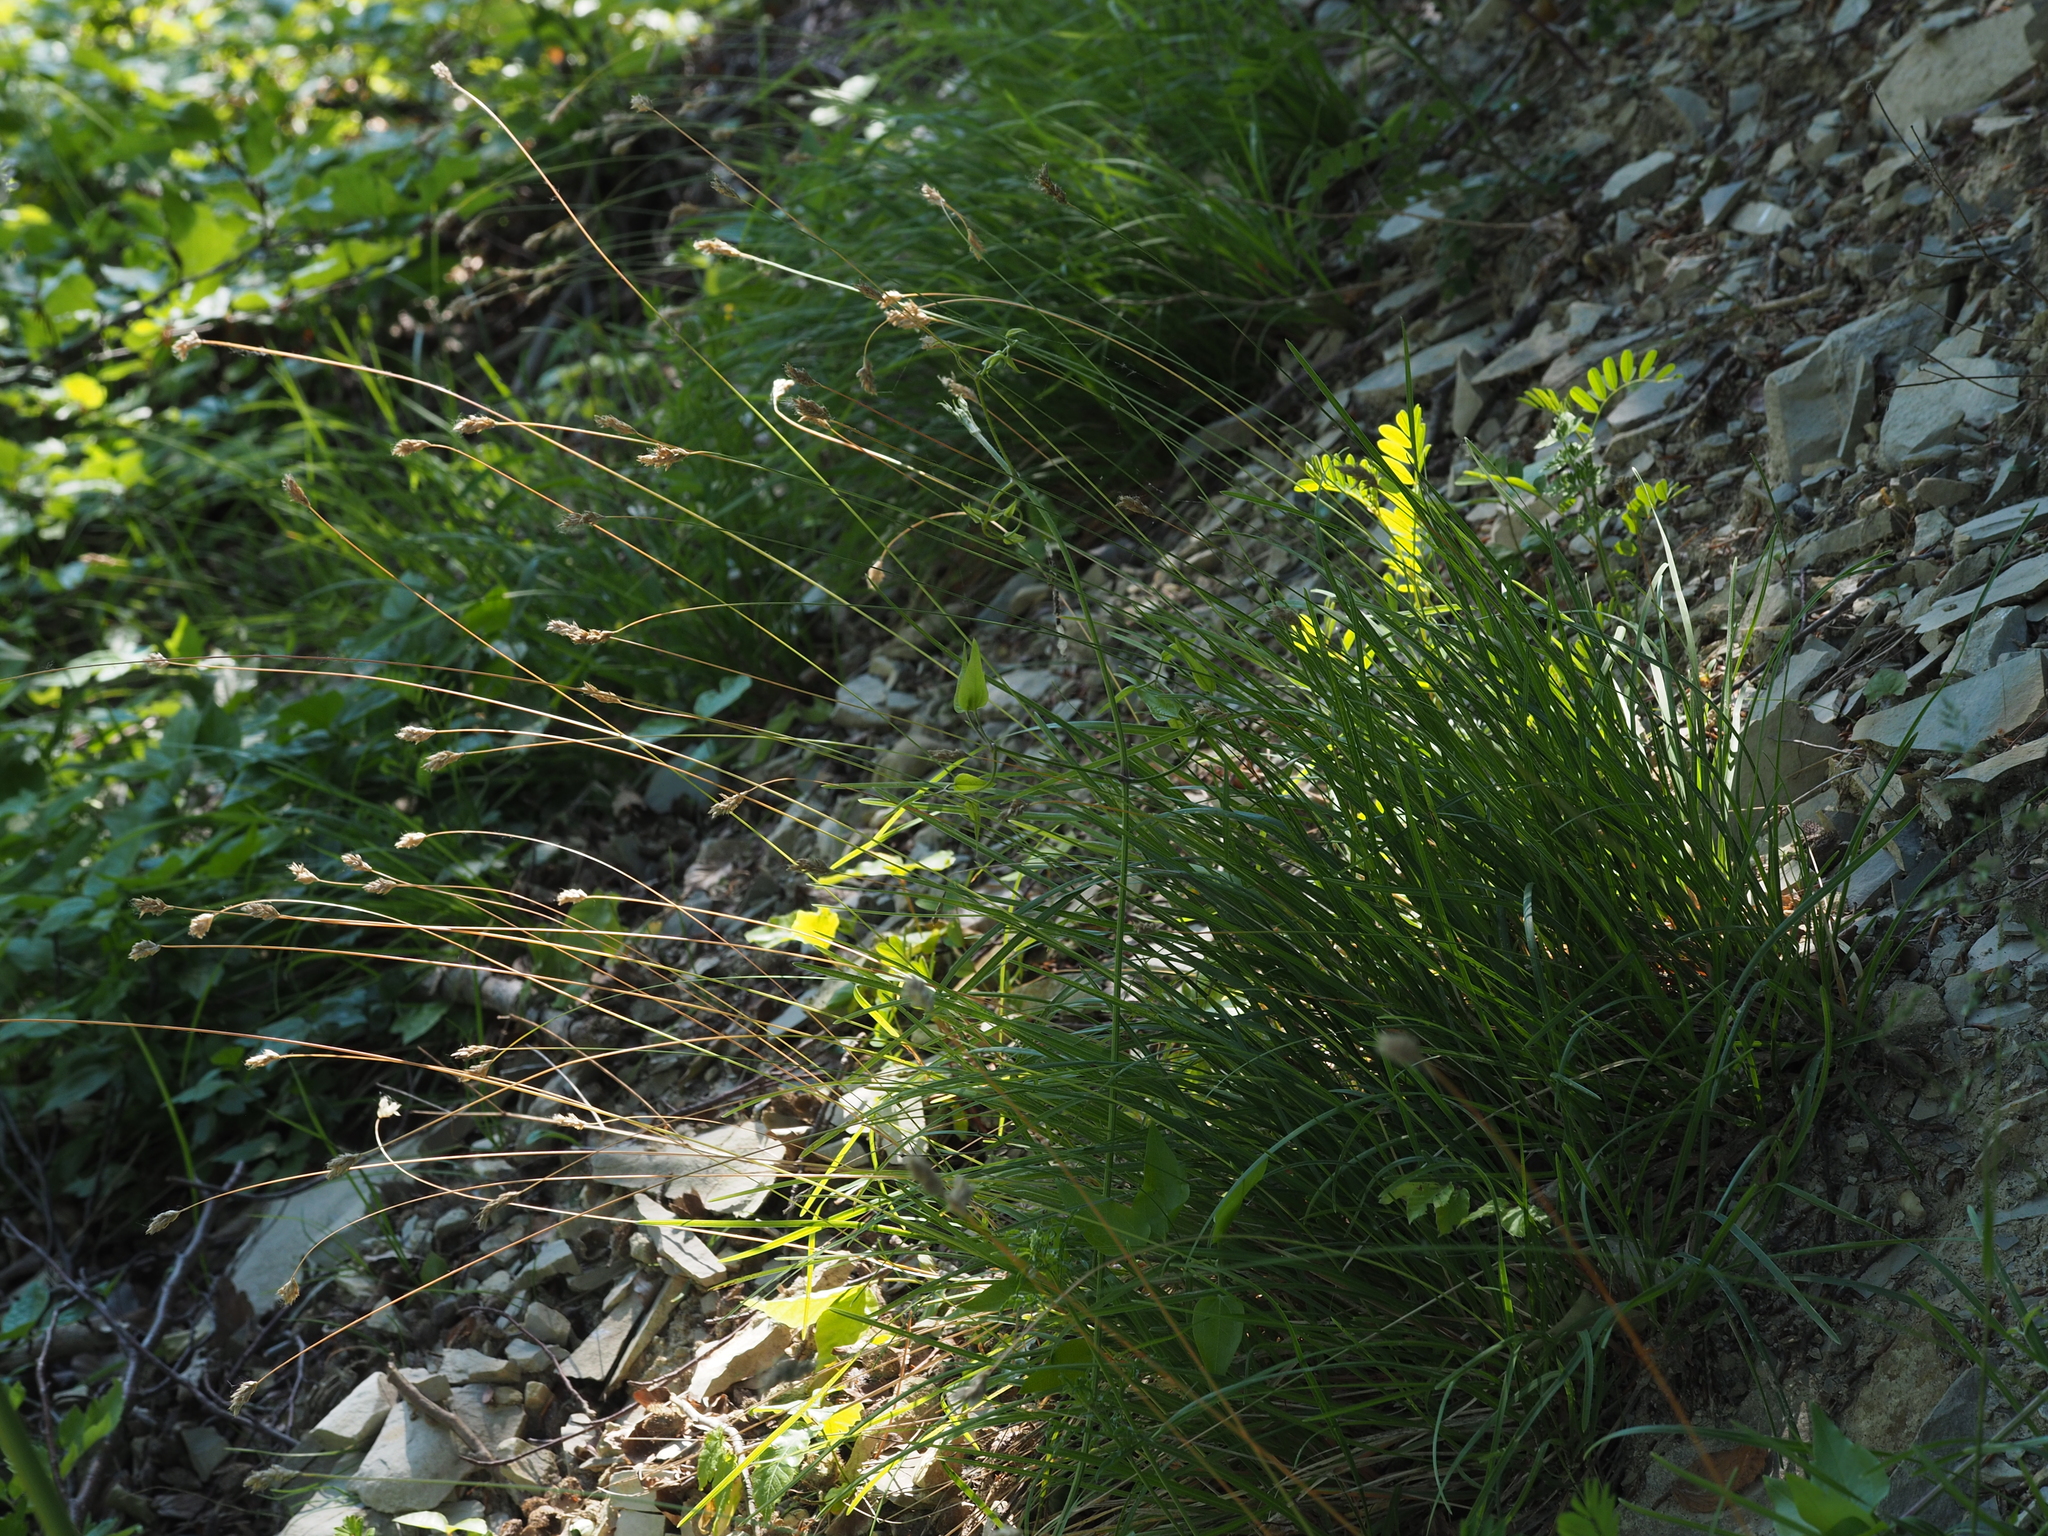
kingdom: Plantae
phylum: Tracheophyta
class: Liliopsida
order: Poales
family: Poaceae
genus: Sesleria
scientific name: Sesleria caerulea
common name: Blue moor-grass
